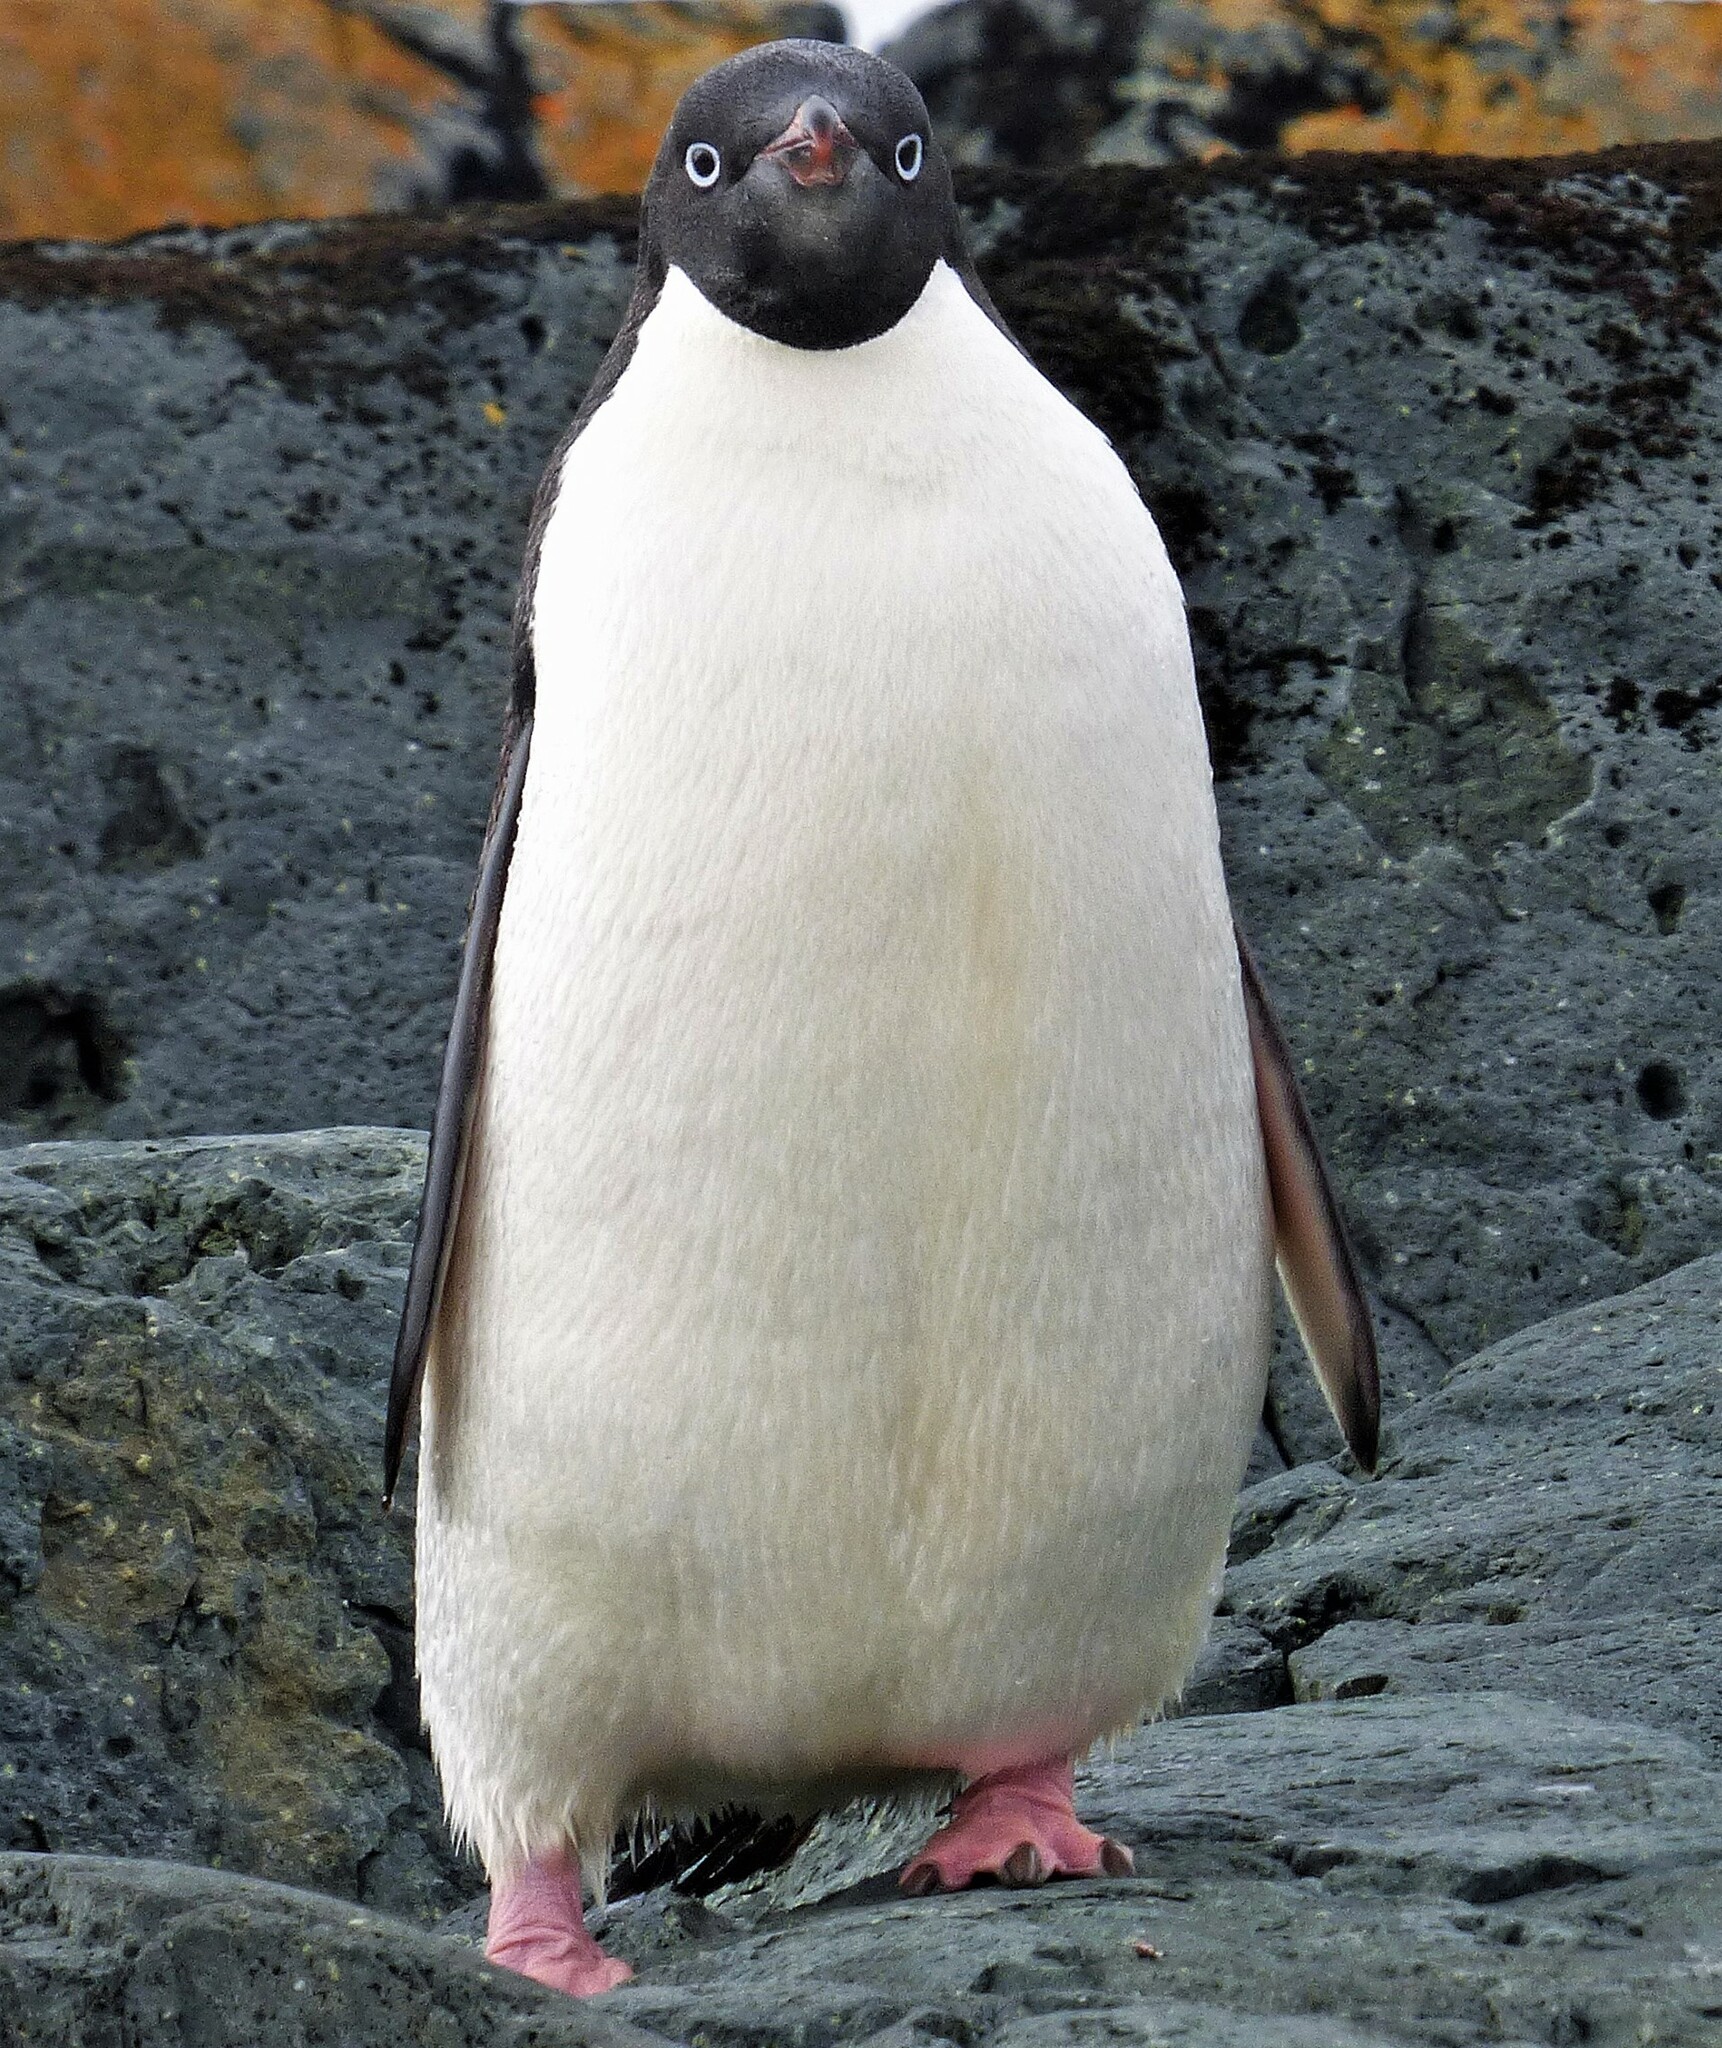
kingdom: Animalia
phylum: Chordata
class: Aves
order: Sphenisciformes
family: Spheniscidae
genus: Pygoscelis
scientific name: Pygoscelis adeliae
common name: Adelie penguin
